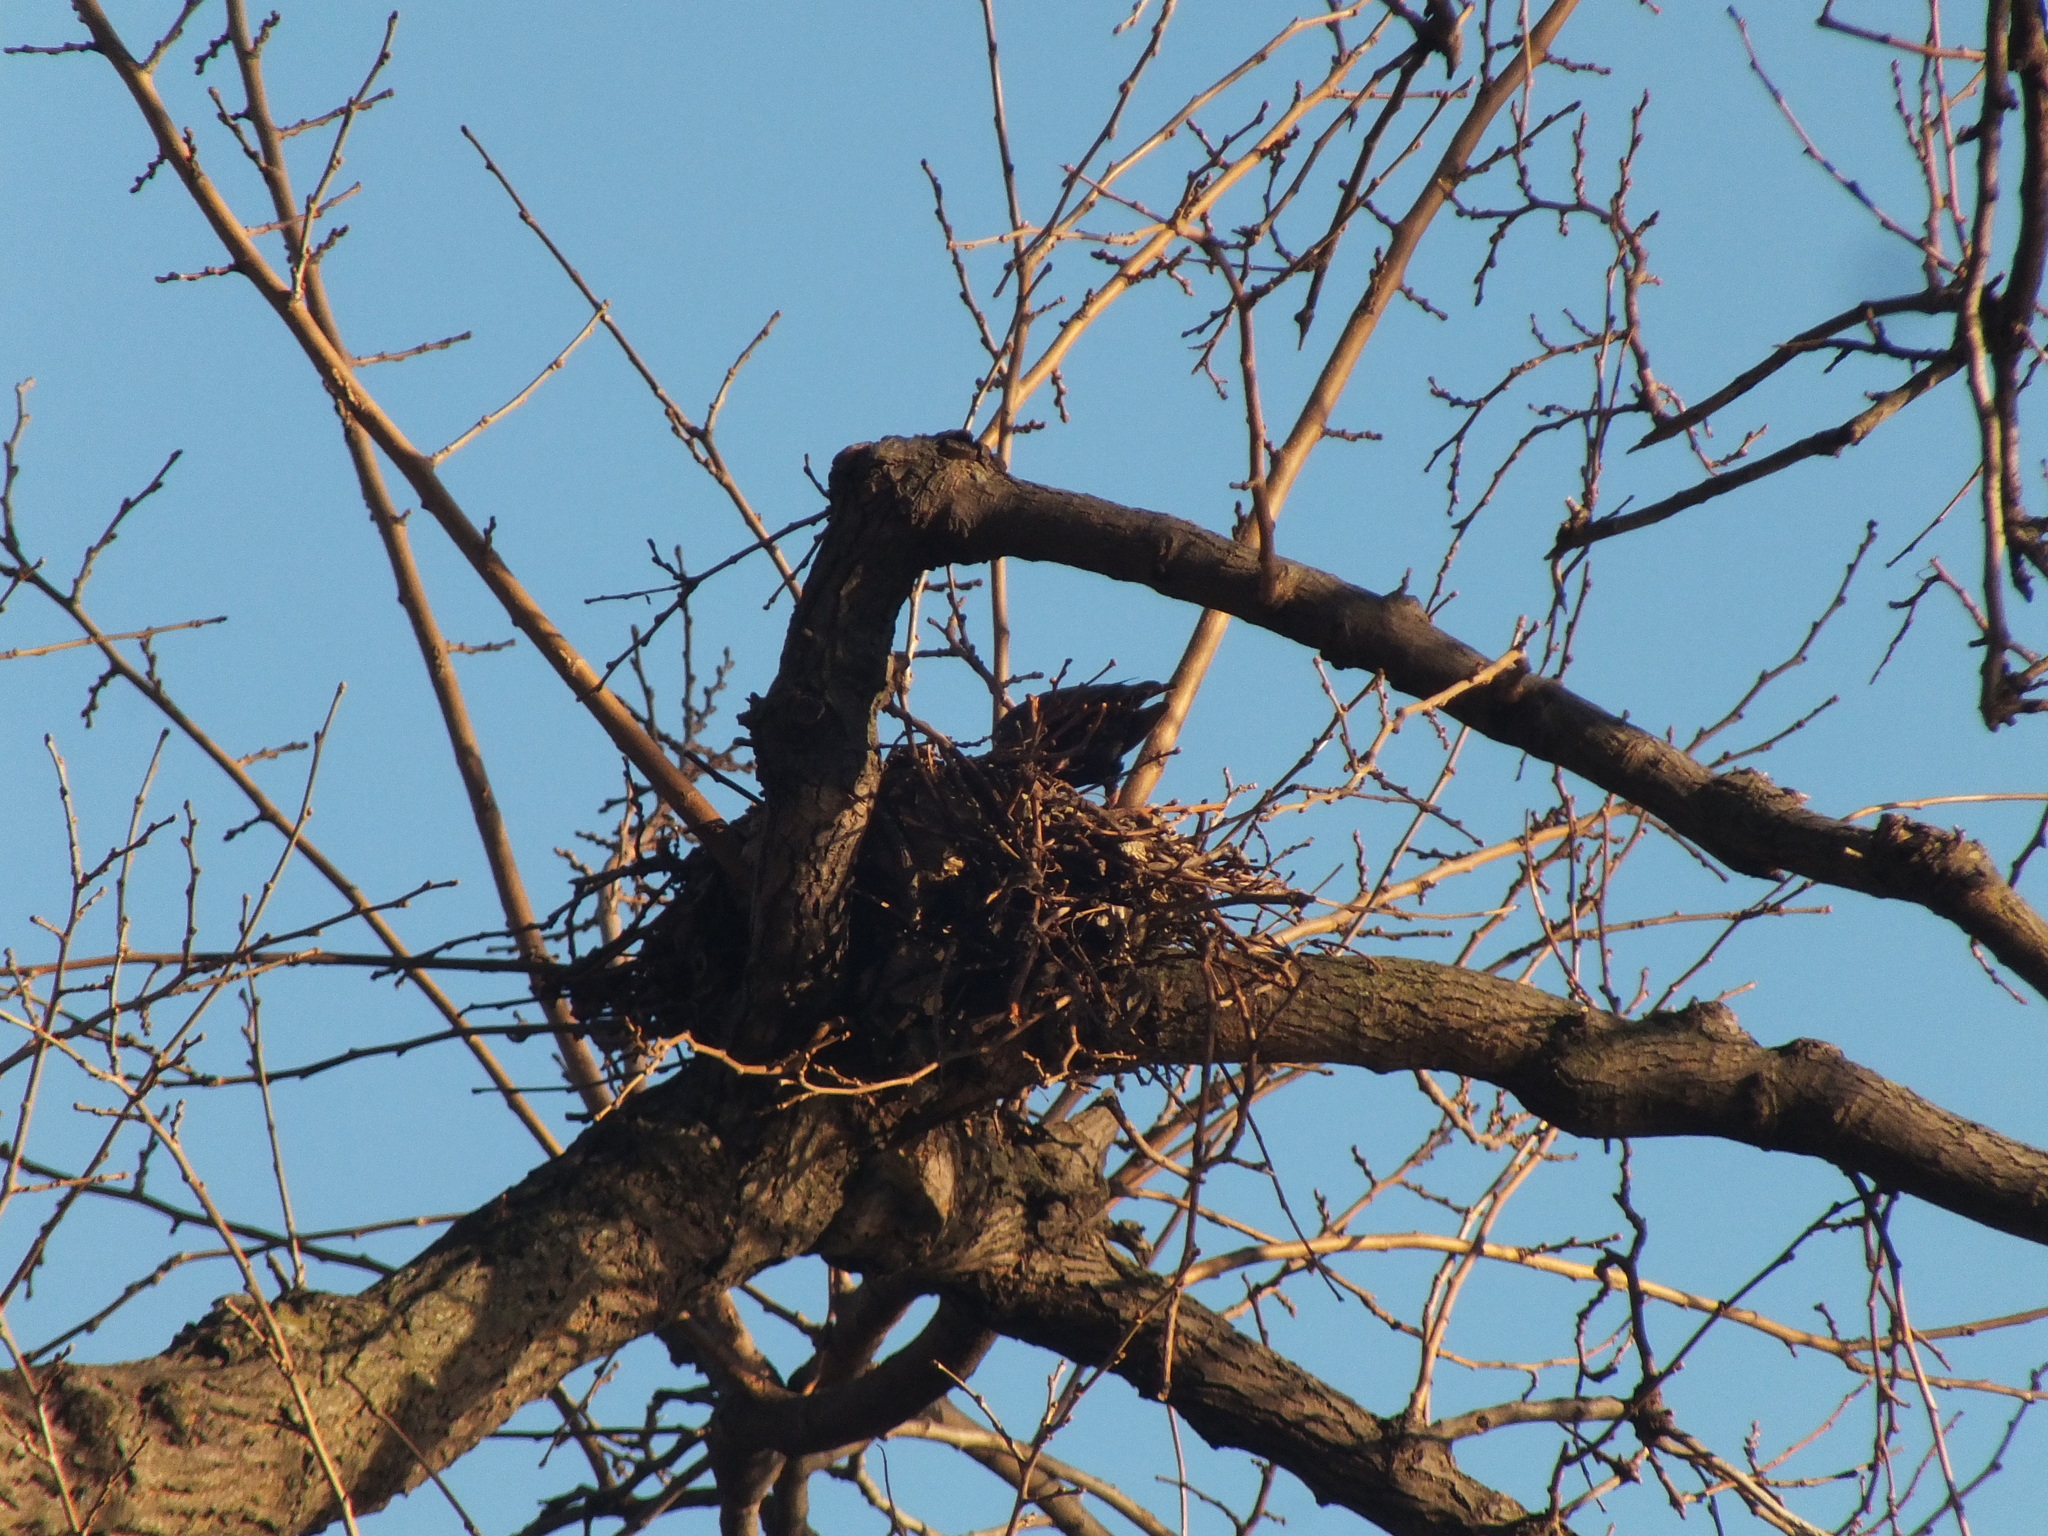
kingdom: Animalia
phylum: Chordata
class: Aves
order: Passeriformes
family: Sturnidae
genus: Sturnus
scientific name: Sturnus vulgaris
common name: Common starling
